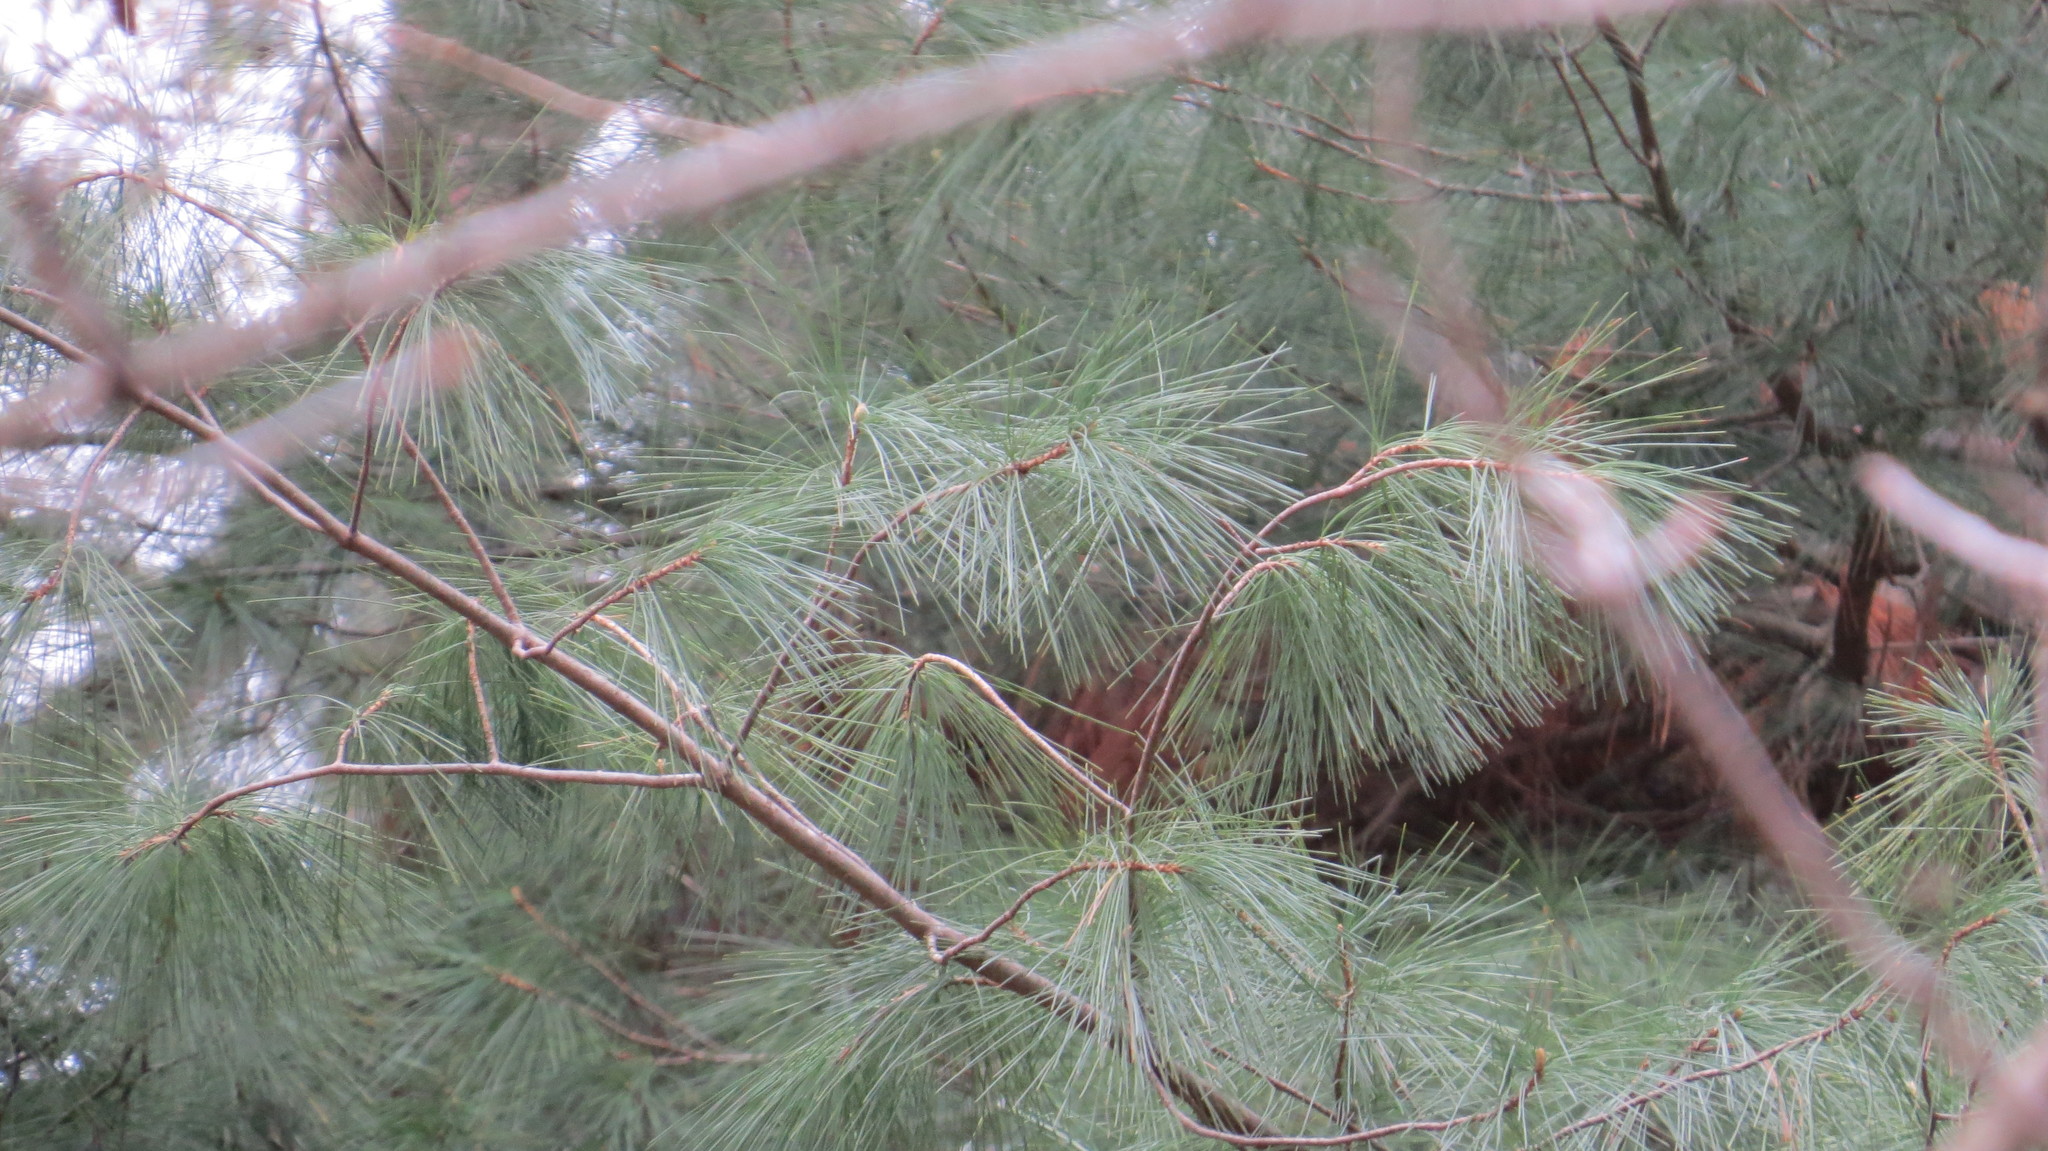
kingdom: Plantae
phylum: Tracheophyta
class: Pinopsida
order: Pinales
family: Pinaceae
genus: Pinus
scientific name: Pinus strobus
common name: Weymouth pine
